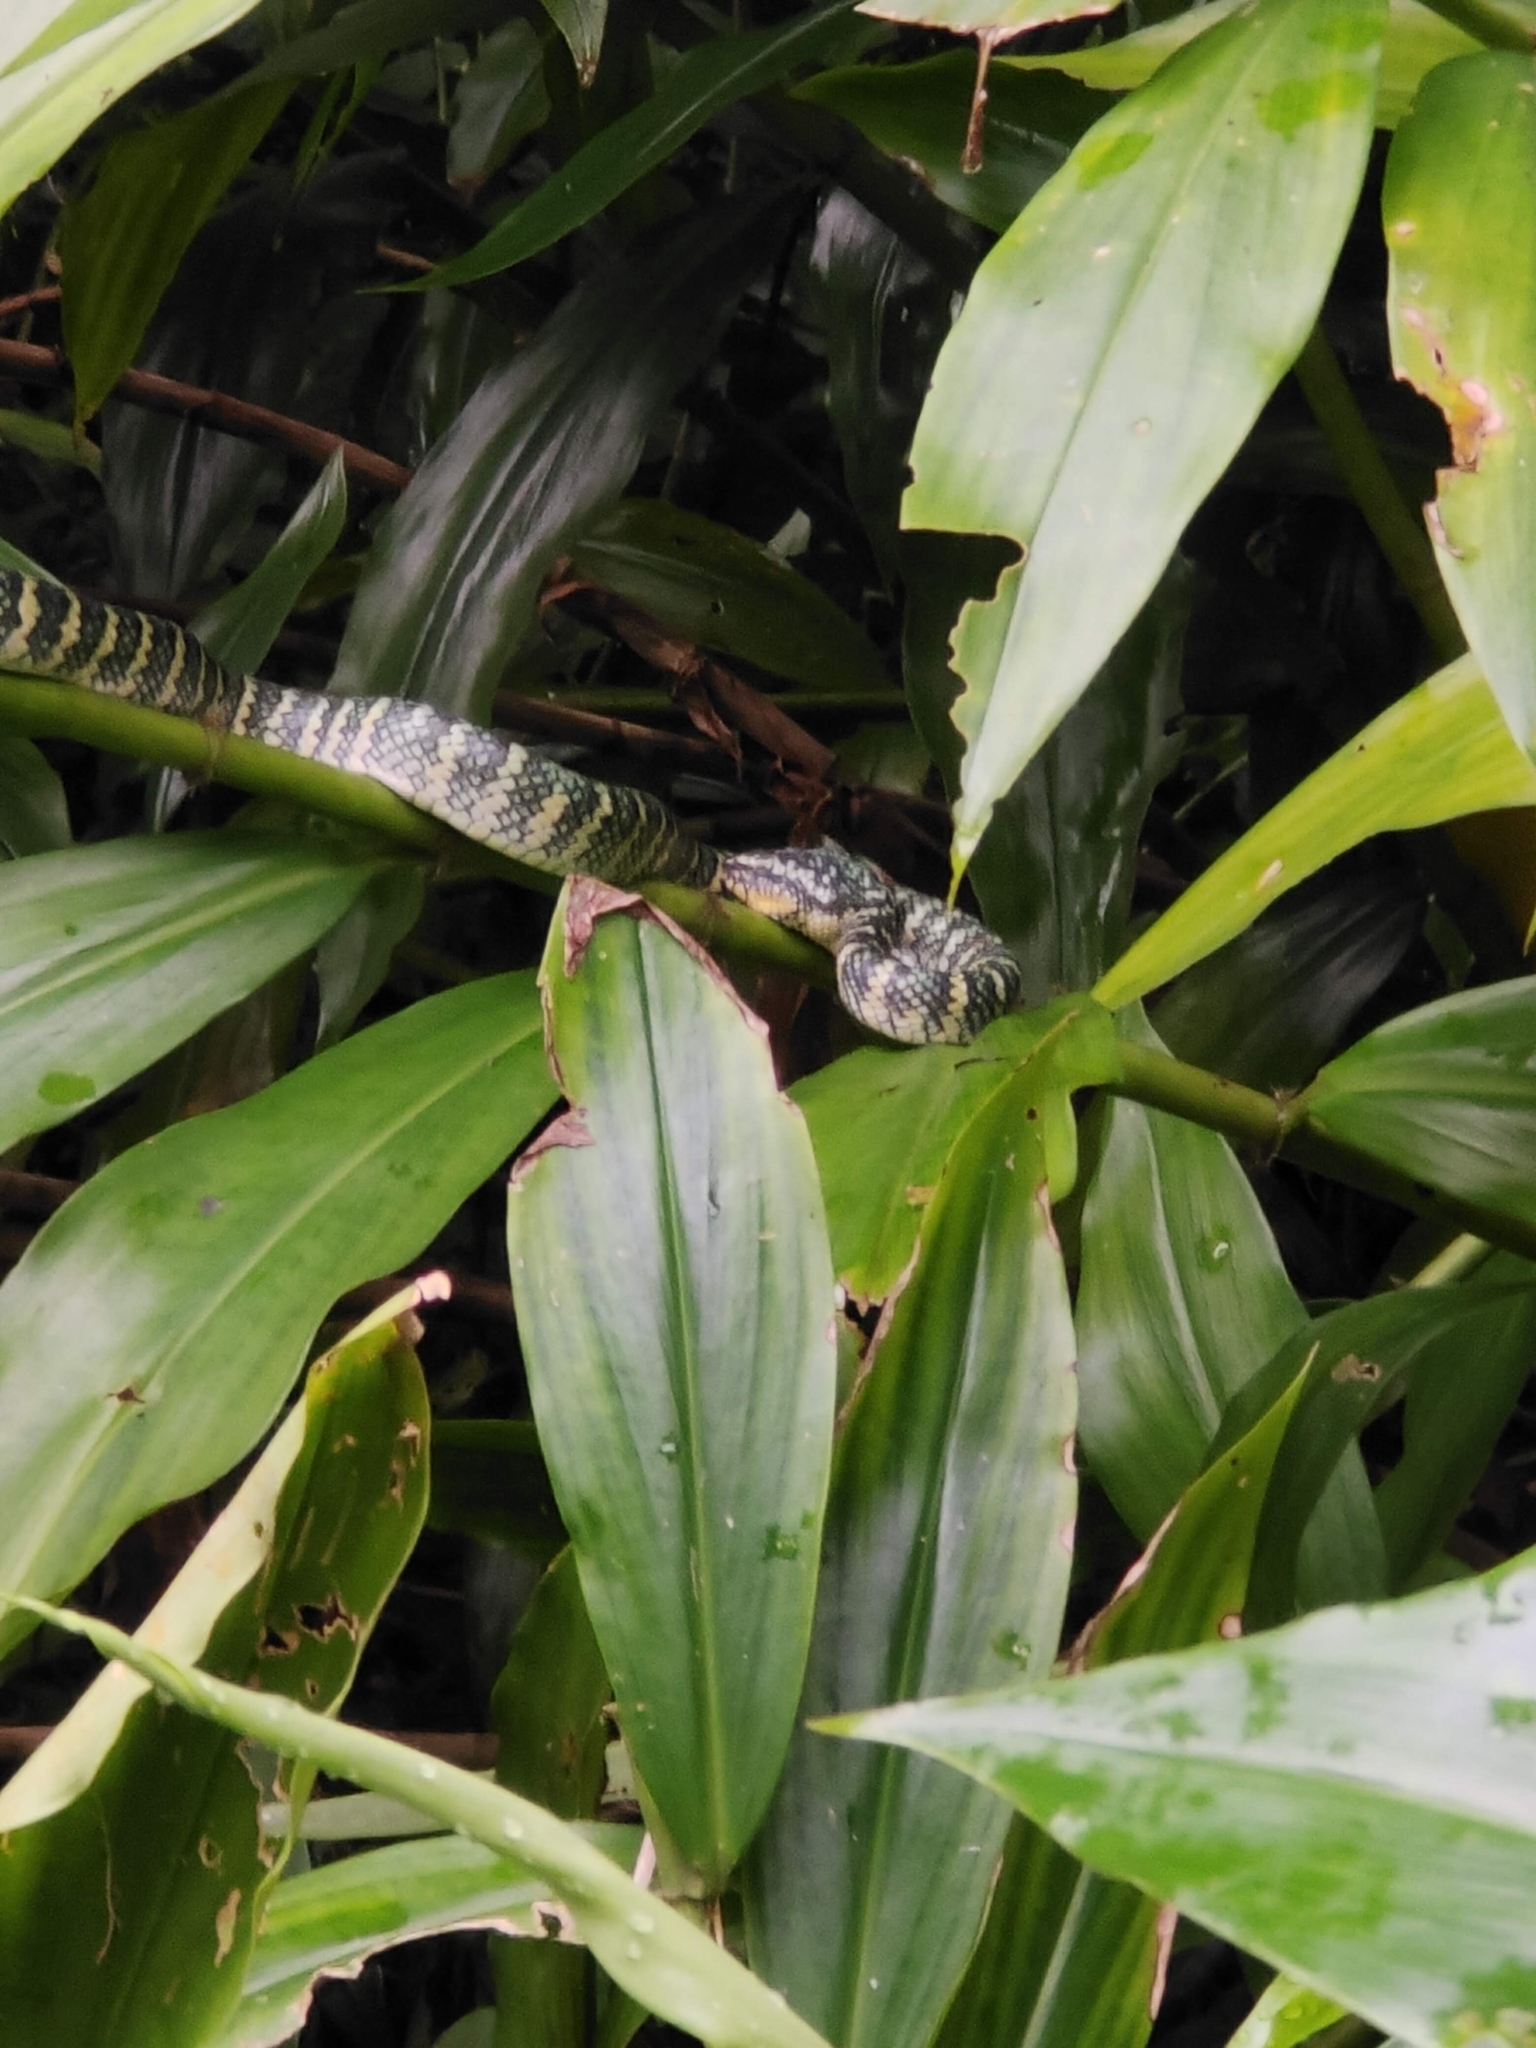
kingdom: Animalia
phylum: Chordata
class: Squamata
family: Viperidae
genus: Tropidolaemus
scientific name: Tropidolaemus wagleri
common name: Wagler's palm viper
